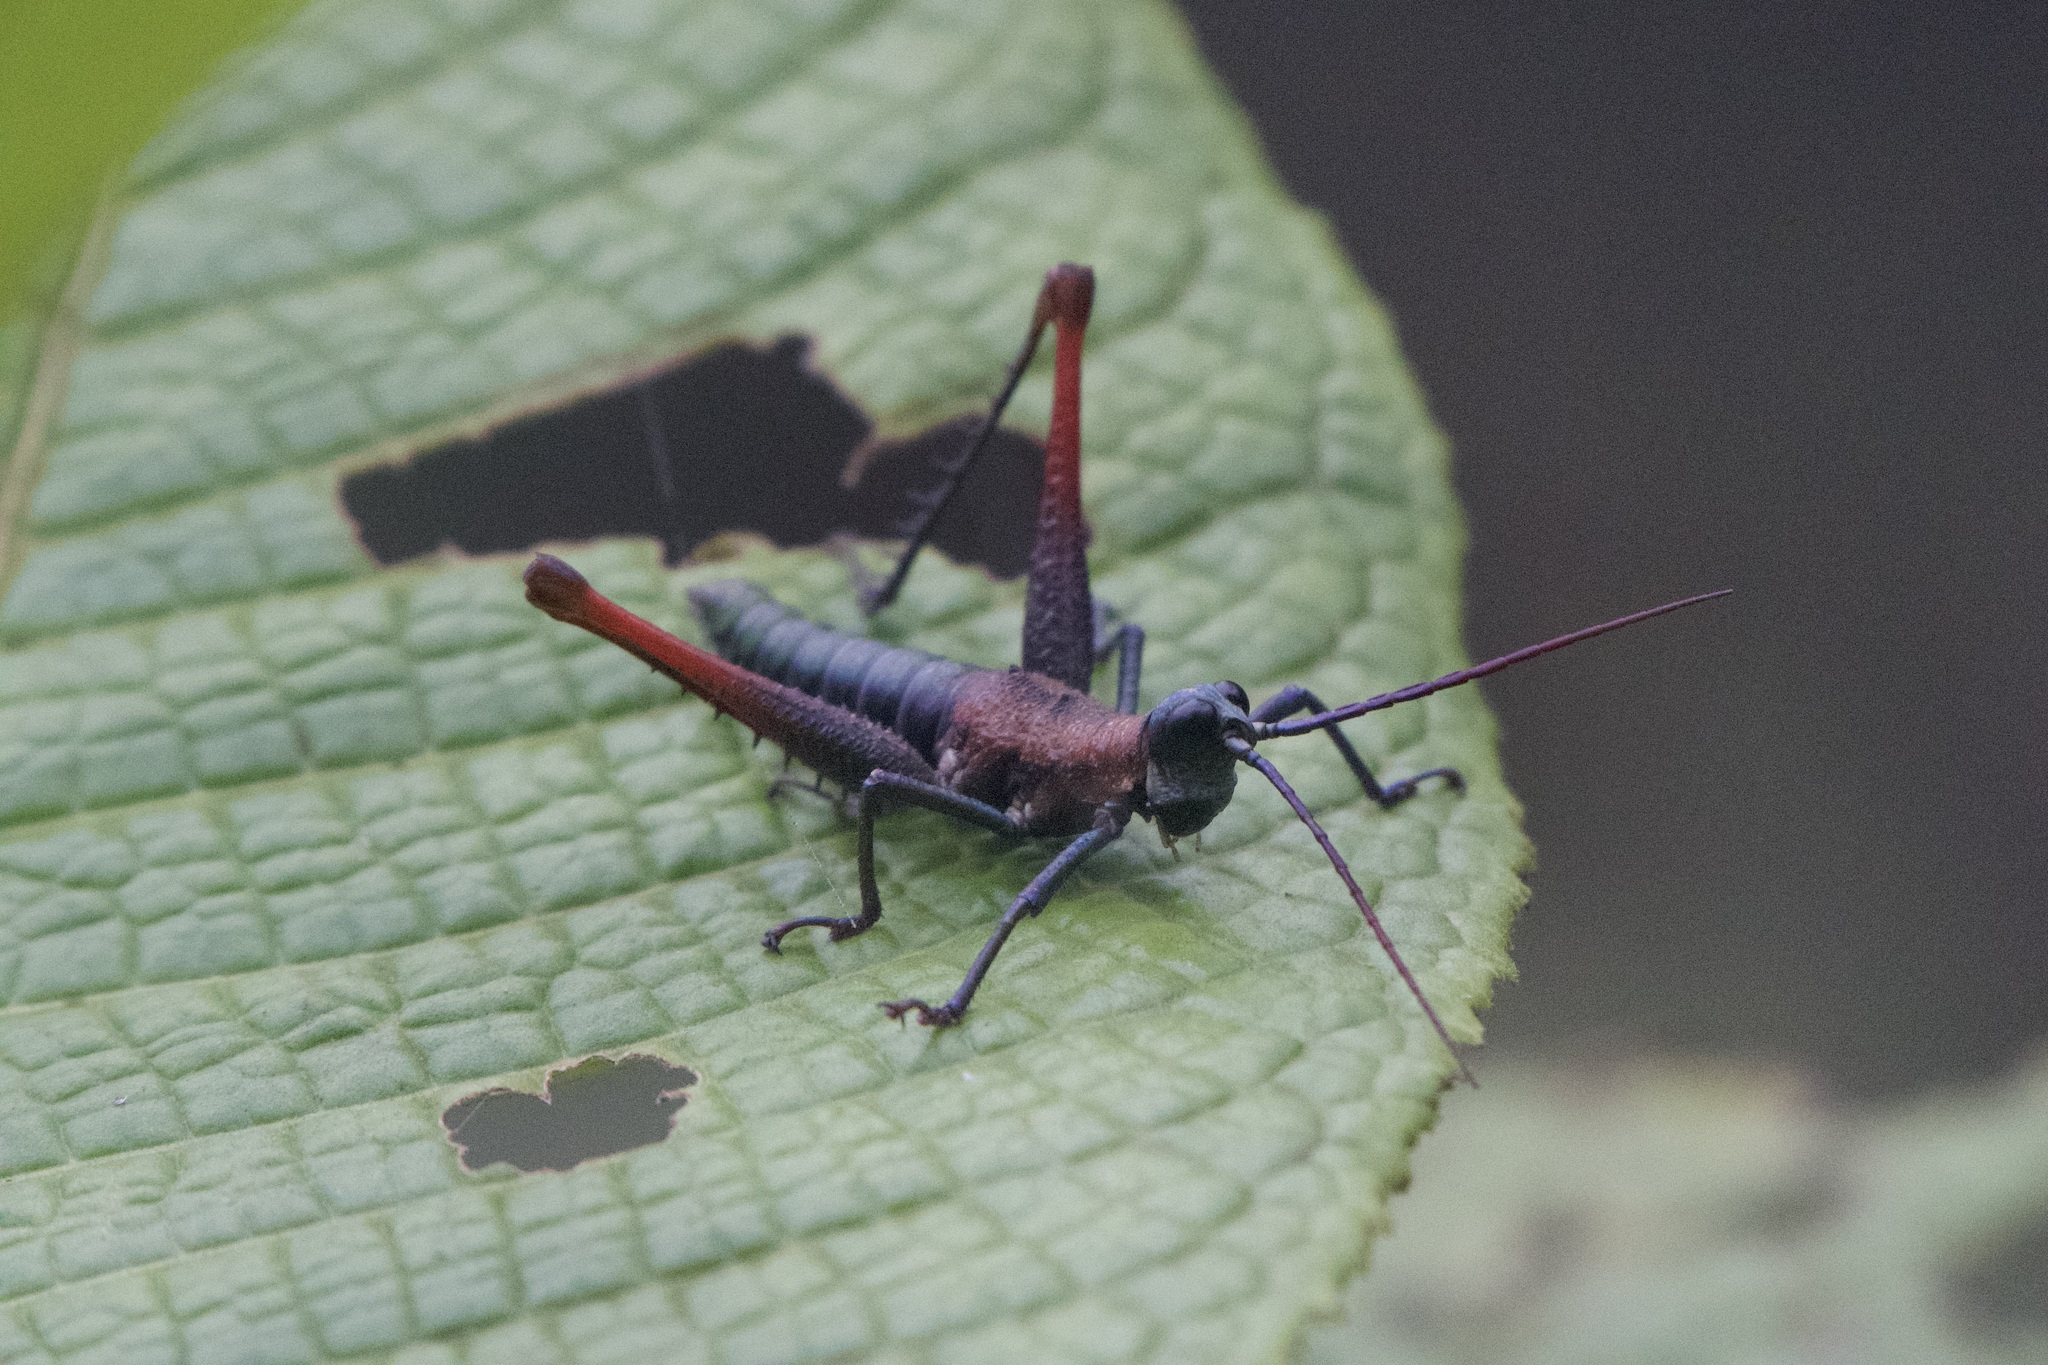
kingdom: Animalia
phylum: Arthropoda
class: Insecta
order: Orthoptera
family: Acrididae
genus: Opaon
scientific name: Opaon varicolor
